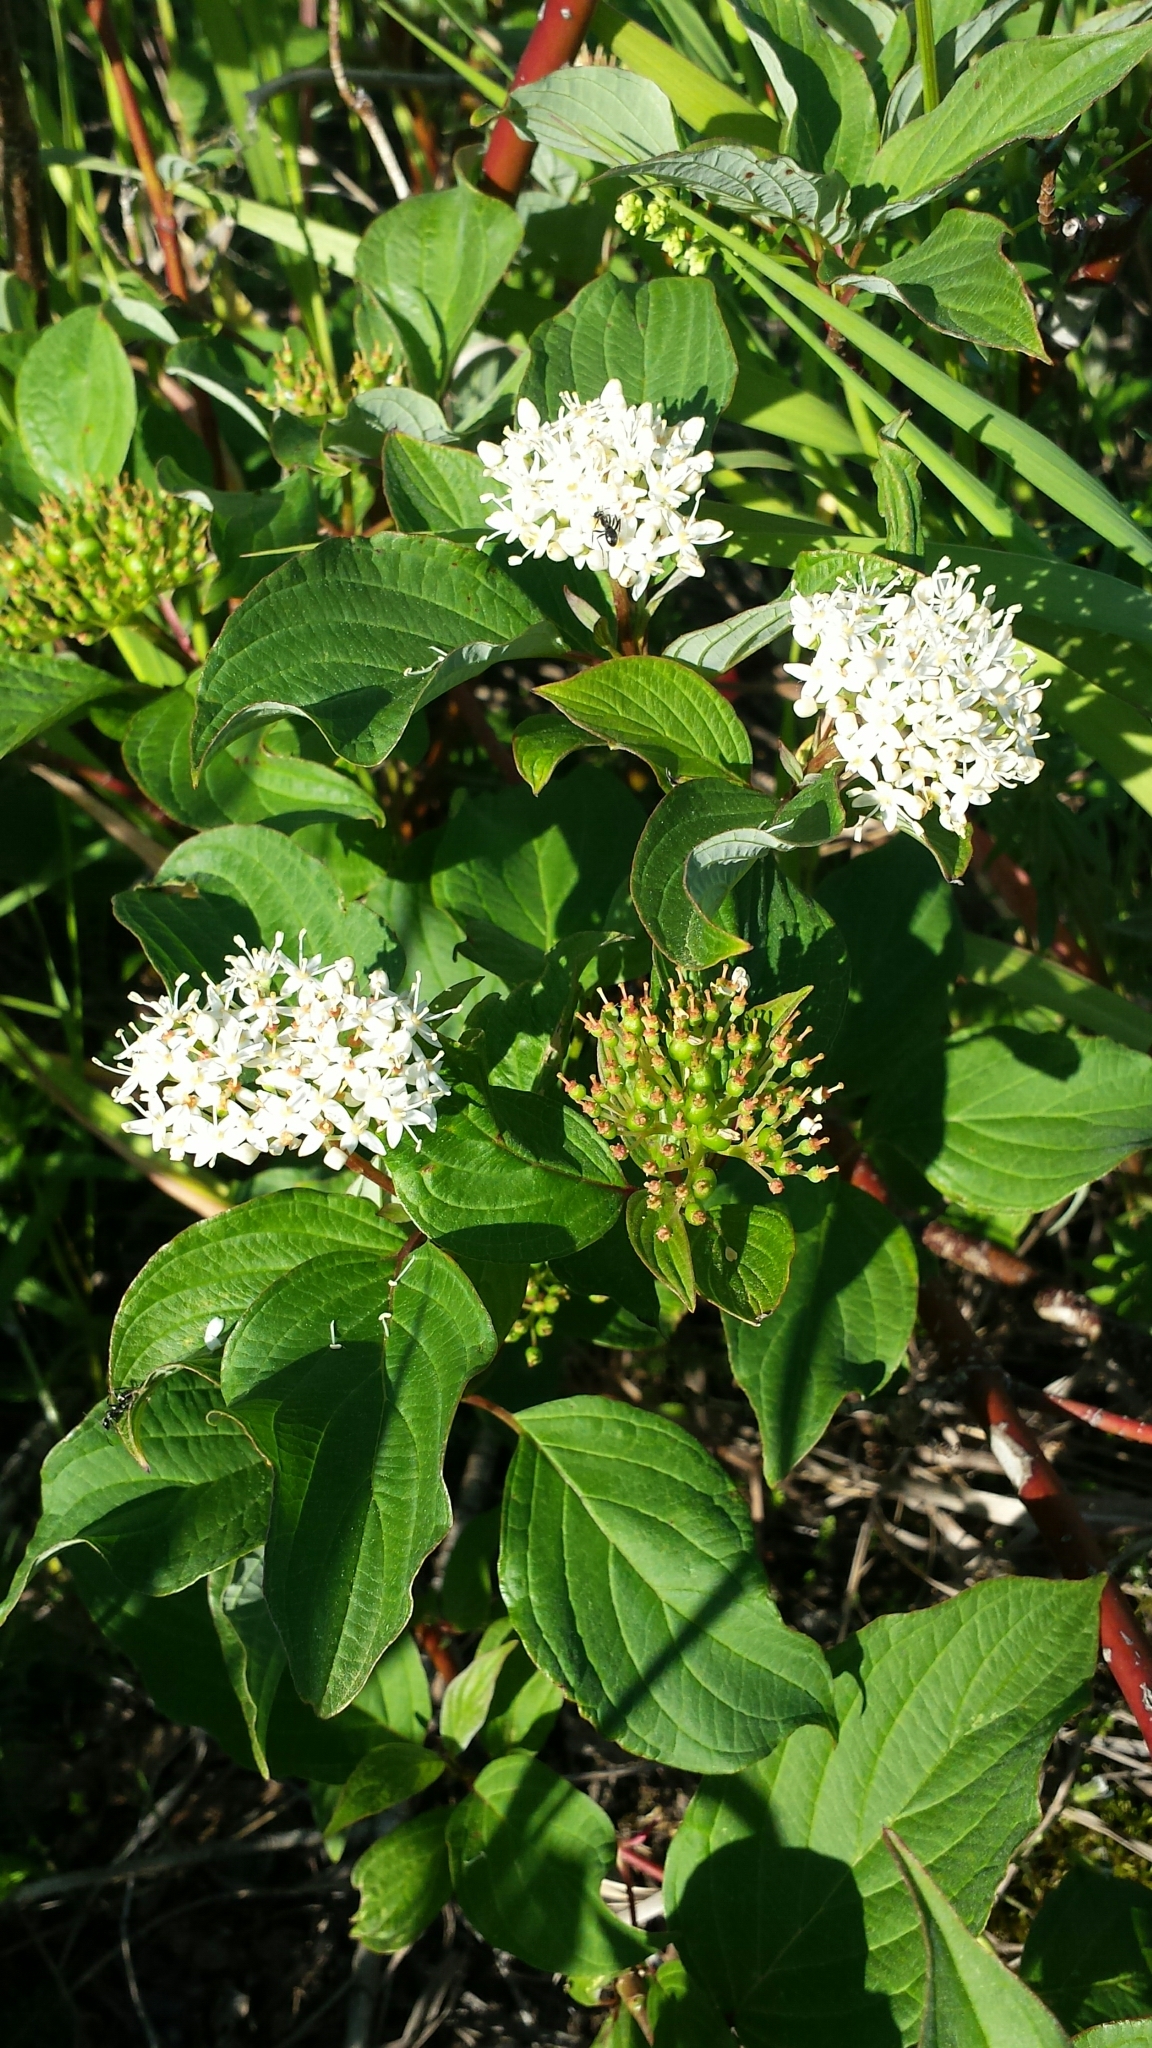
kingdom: Plantae
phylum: Tracheophyta
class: Magnoliopsida
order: Cornales
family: Cornaceae
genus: Cornus
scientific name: Cornus sericea
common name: Red-osier dogwood
